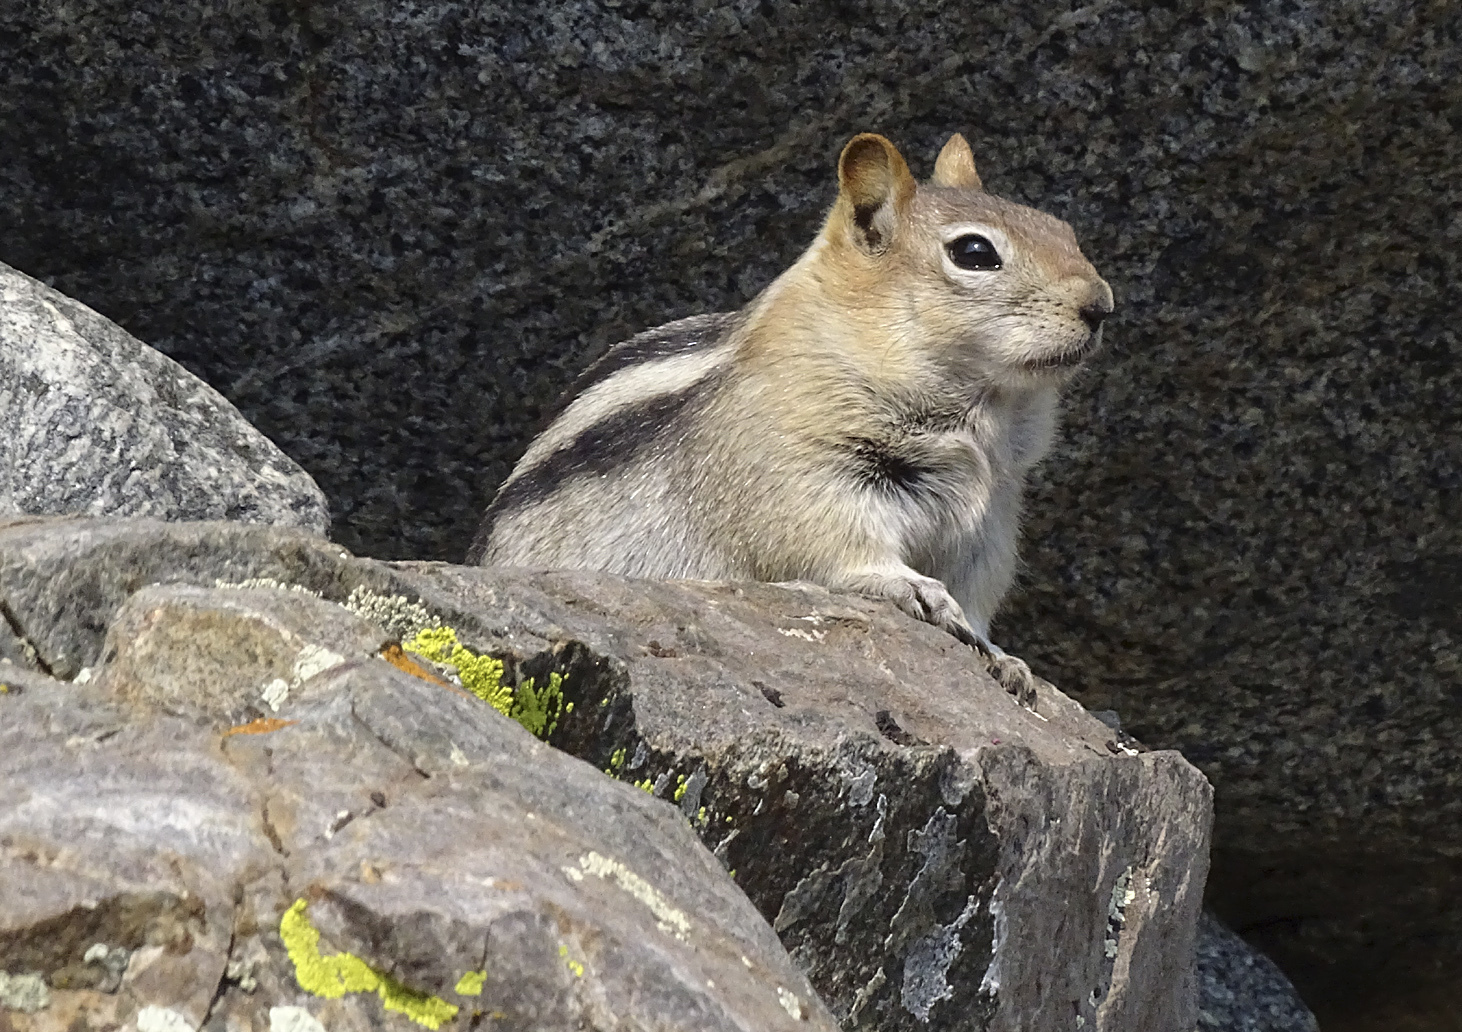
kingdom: Animalia
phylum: Chordata
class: Mammalia
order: Rodentia
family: Sciuridae
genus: Callospermophilus
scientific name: Callospermophilus lateralis
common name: Golden-mantled ground squirrel
